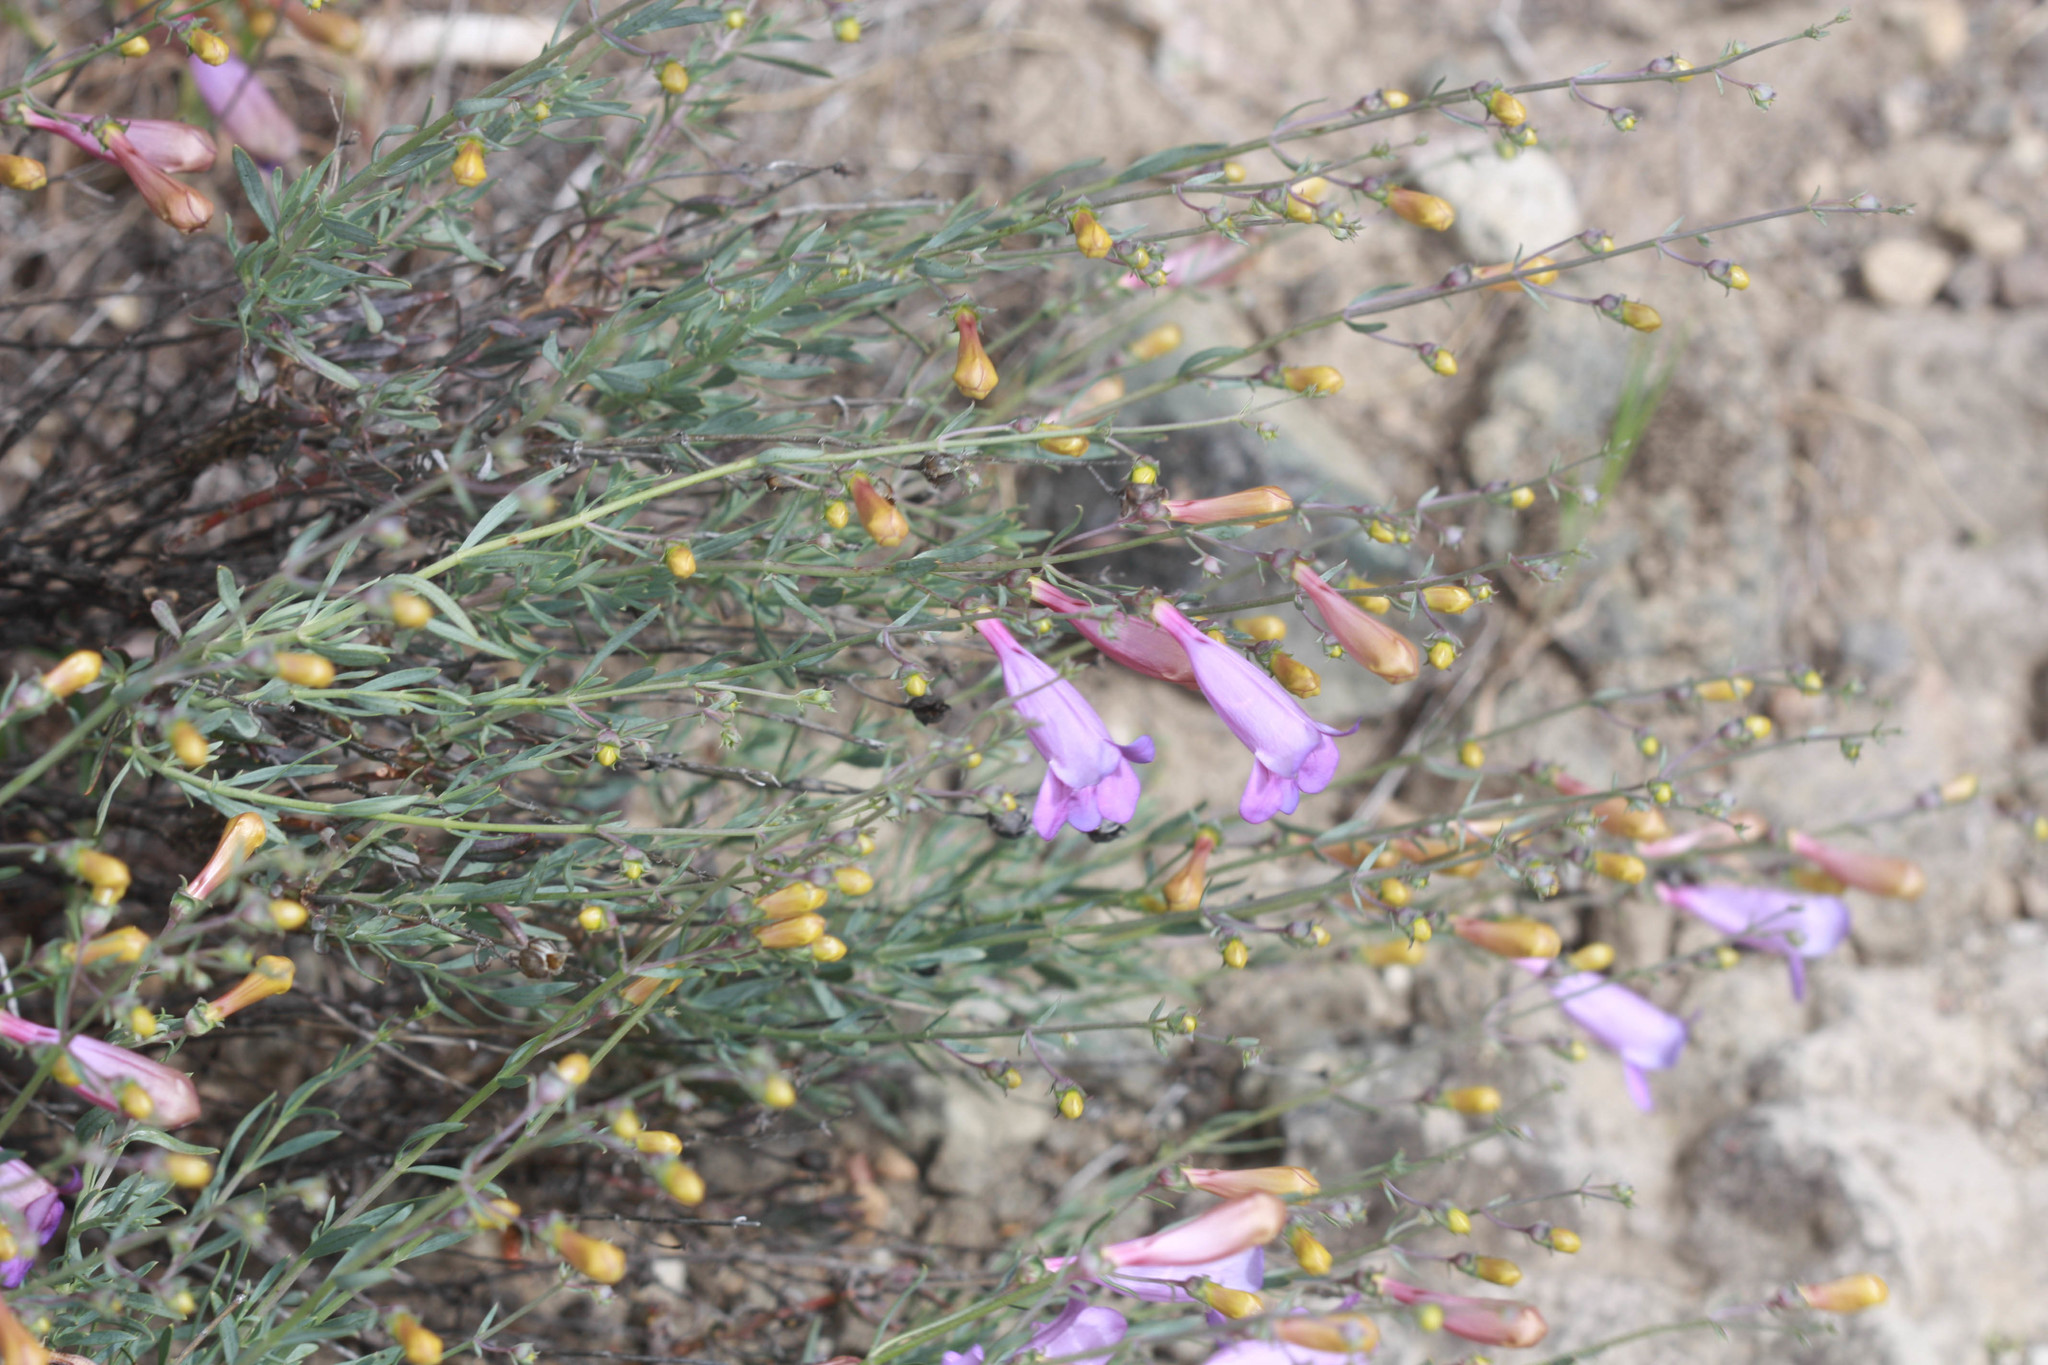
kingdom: Plantae
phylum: Tracheophyta
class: Magnoliopsida
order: Lamiales
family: Plantaginaceae
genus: Penstemon
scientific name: Penstemon heterophyllus
